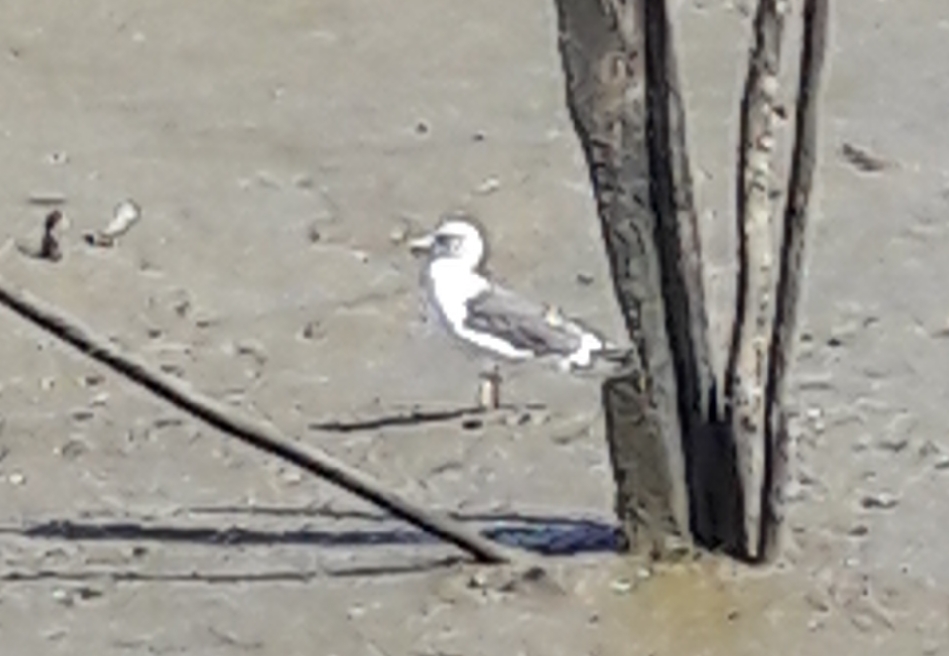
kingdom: Animalia
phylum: Chordata
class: Aves
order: Charadriiformes
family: Laridae
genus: Larus
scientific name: Larus
